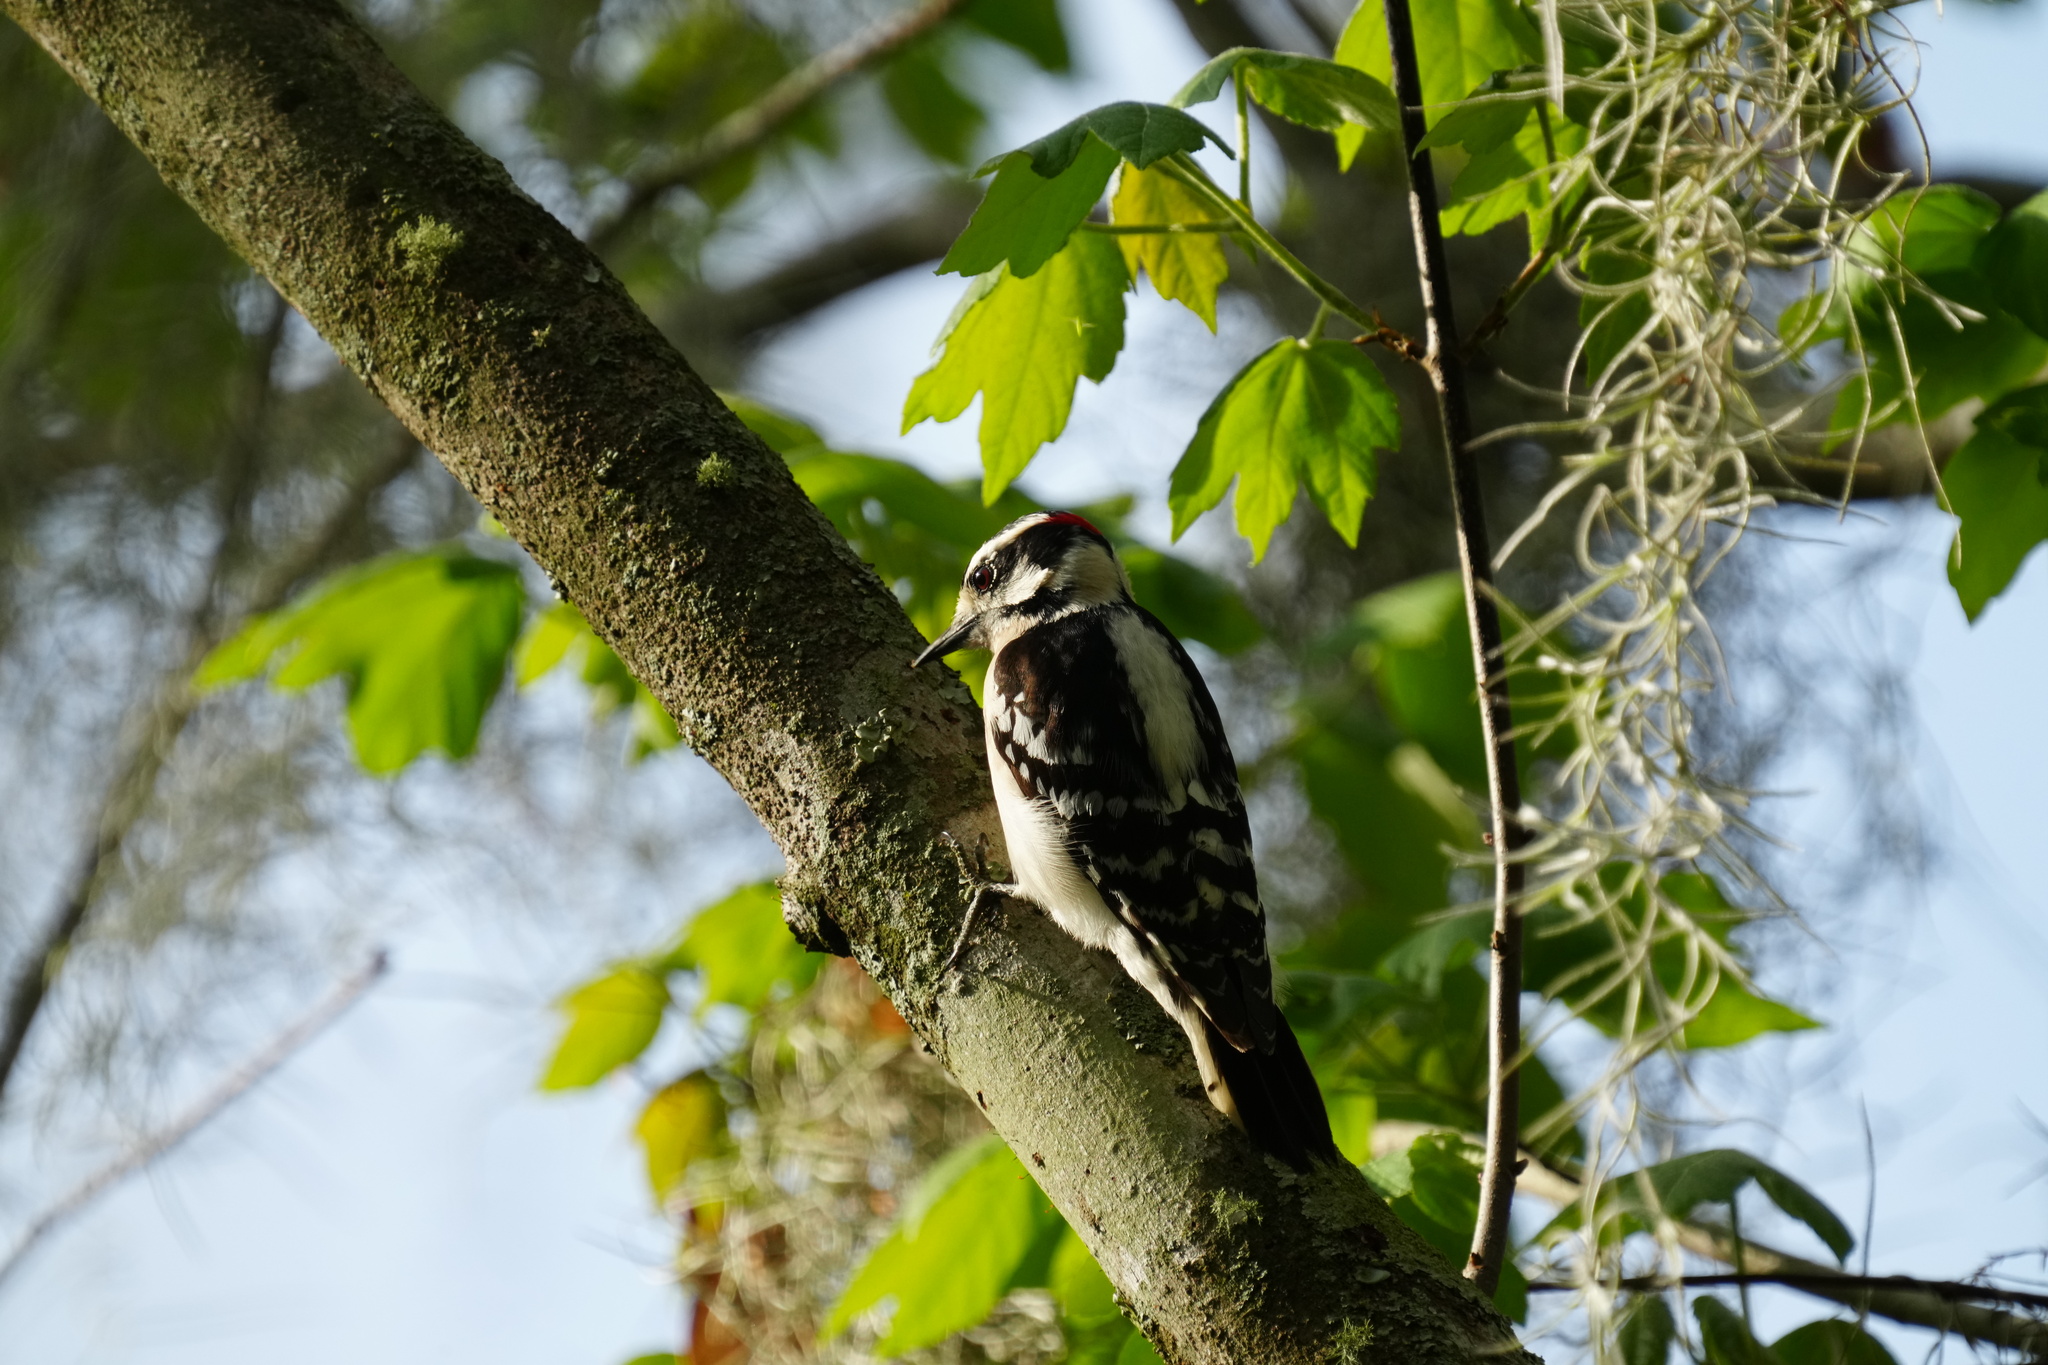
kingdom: Animalia
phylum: Chordata
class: Aves
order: Piciformes
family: Picidae
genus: Dryobates
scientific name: Dryobates pubescens
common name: Downy woodpecker
